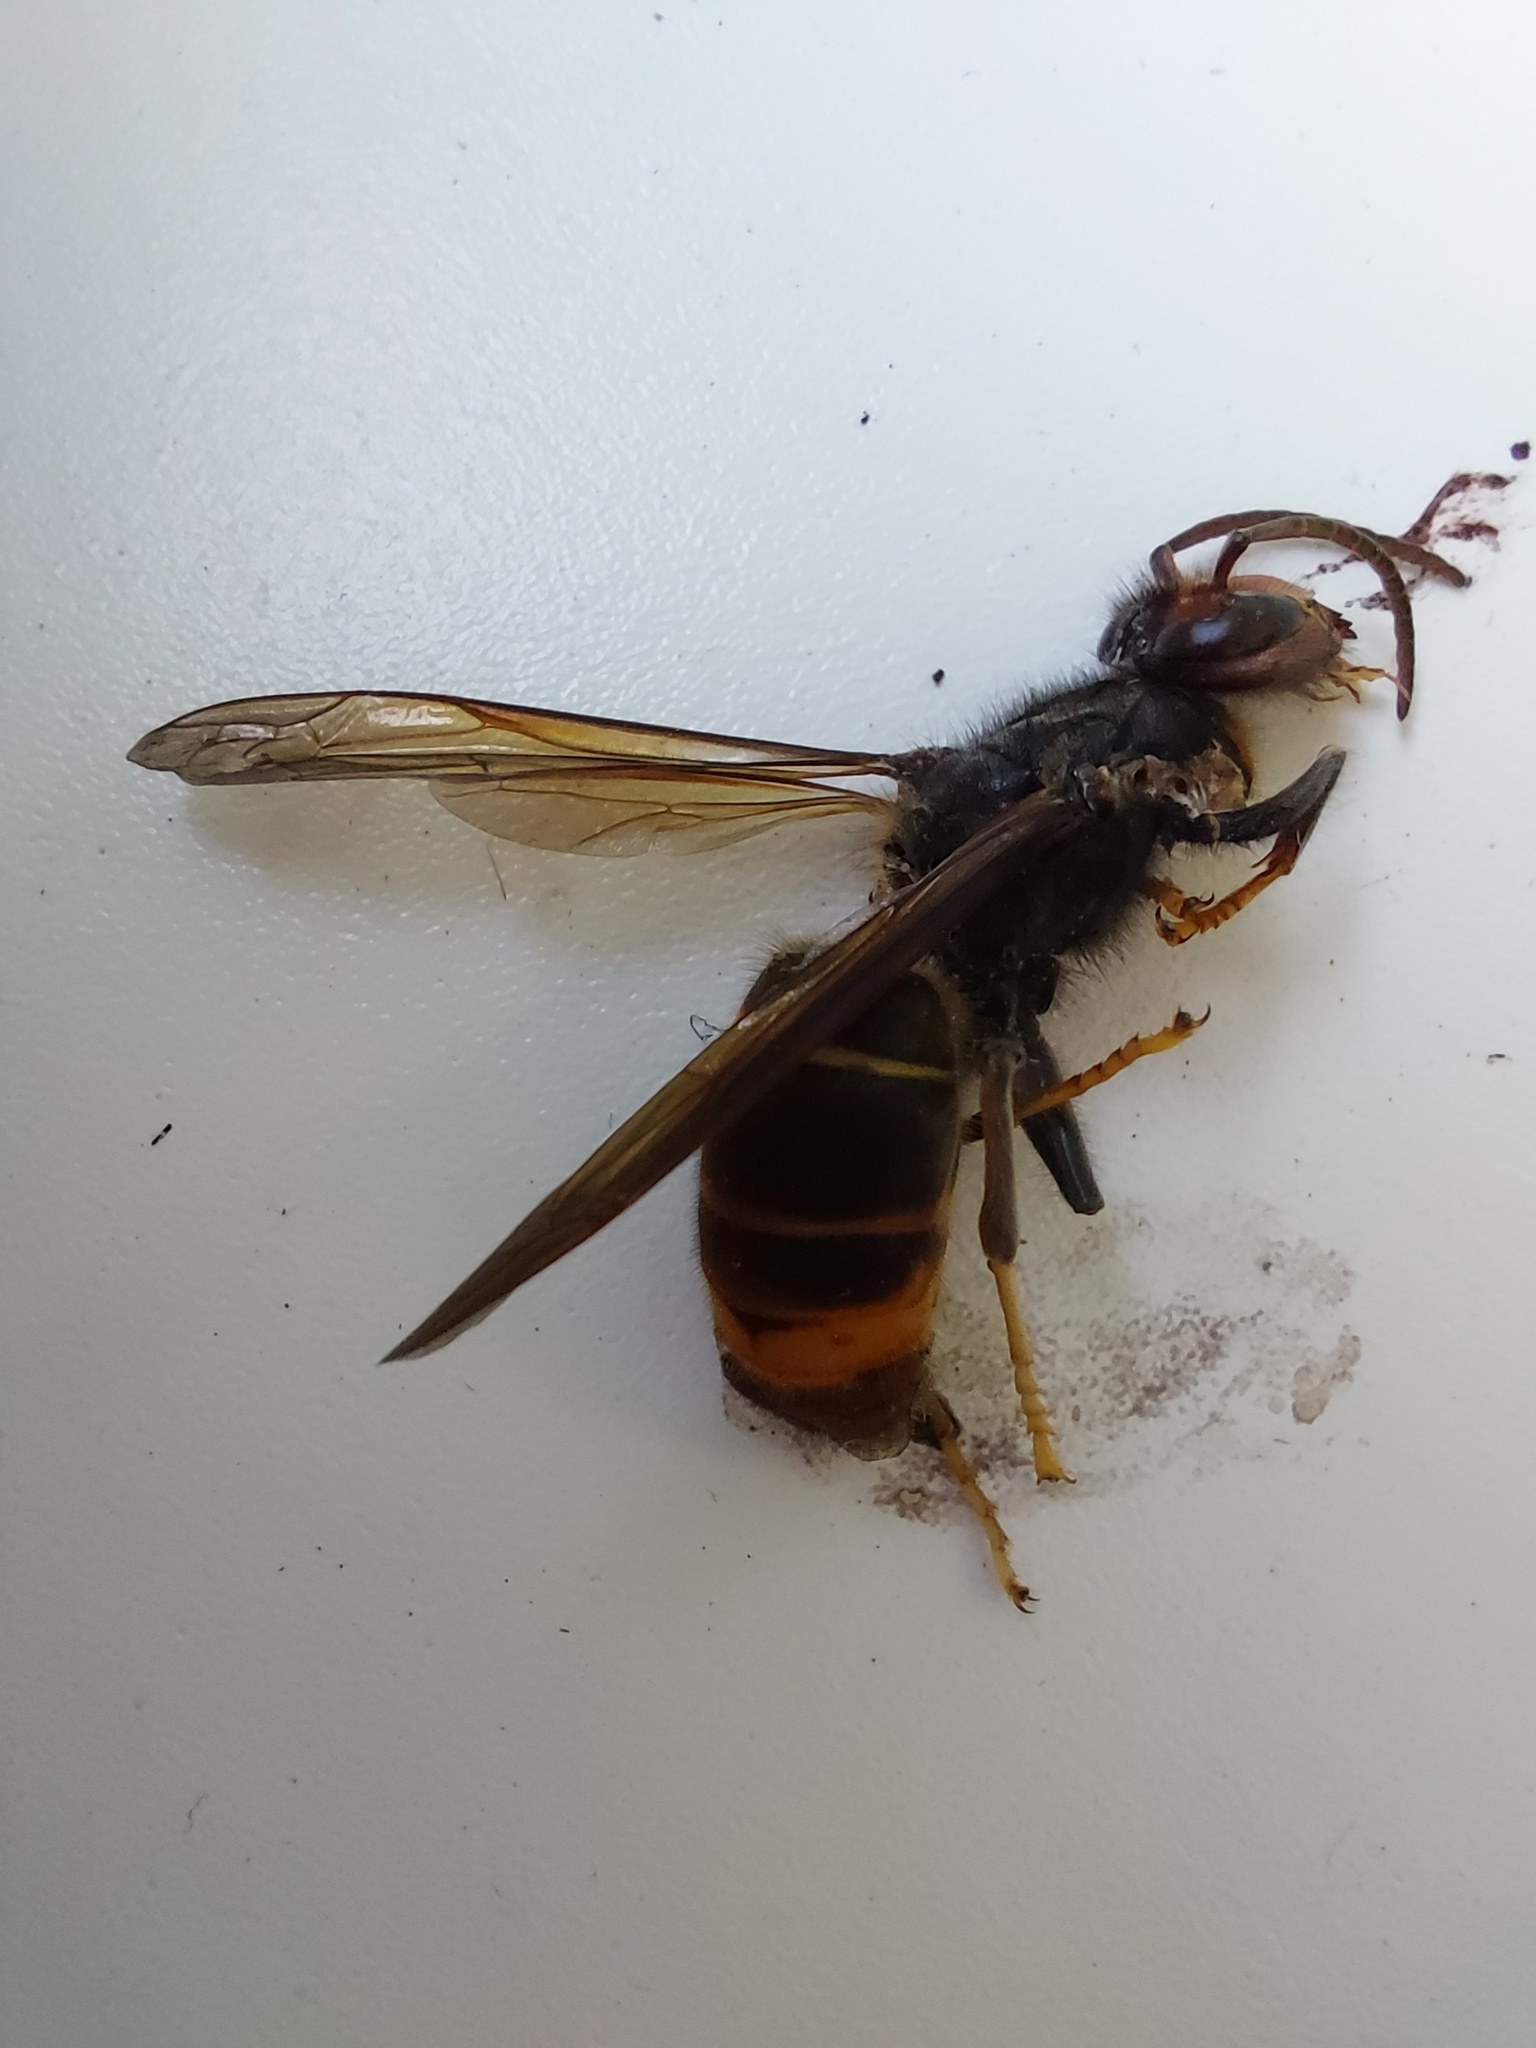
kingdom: Animalia
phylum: Arthropoda
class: Insecta
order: Hymenoptera
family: Vespidae
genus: Vespa
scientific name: Vespa velutina
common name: Asian hornet
